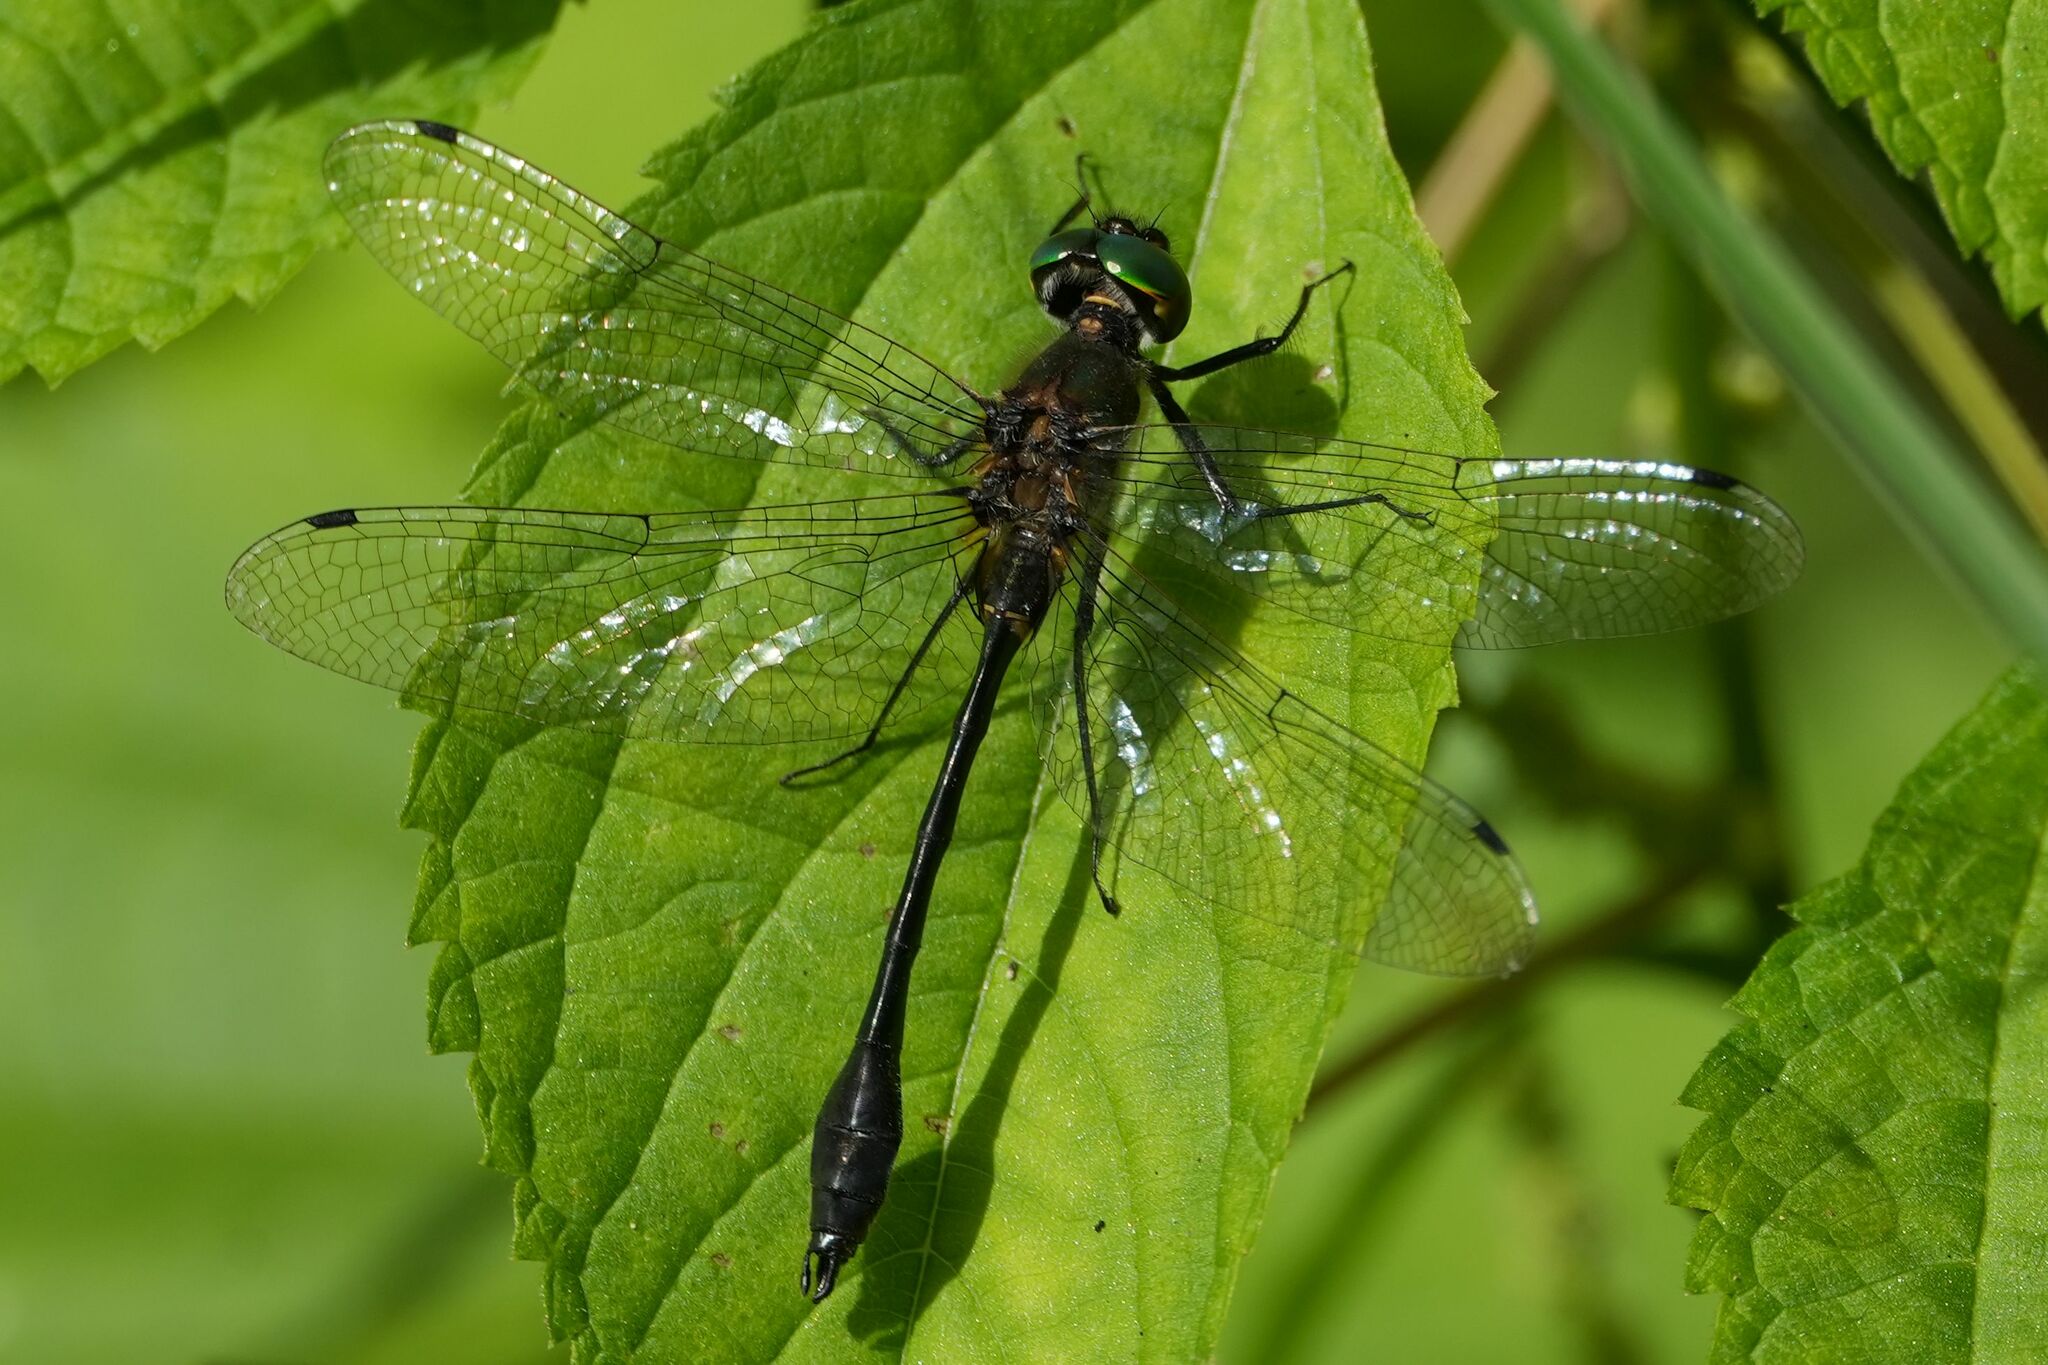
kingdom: Animalia
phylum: Arthropoda
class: Insecta
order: Odonata
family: Corduliidae
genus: Dorocordulia
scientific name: Dorocordulia libera
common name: Racket-tailed emerald
